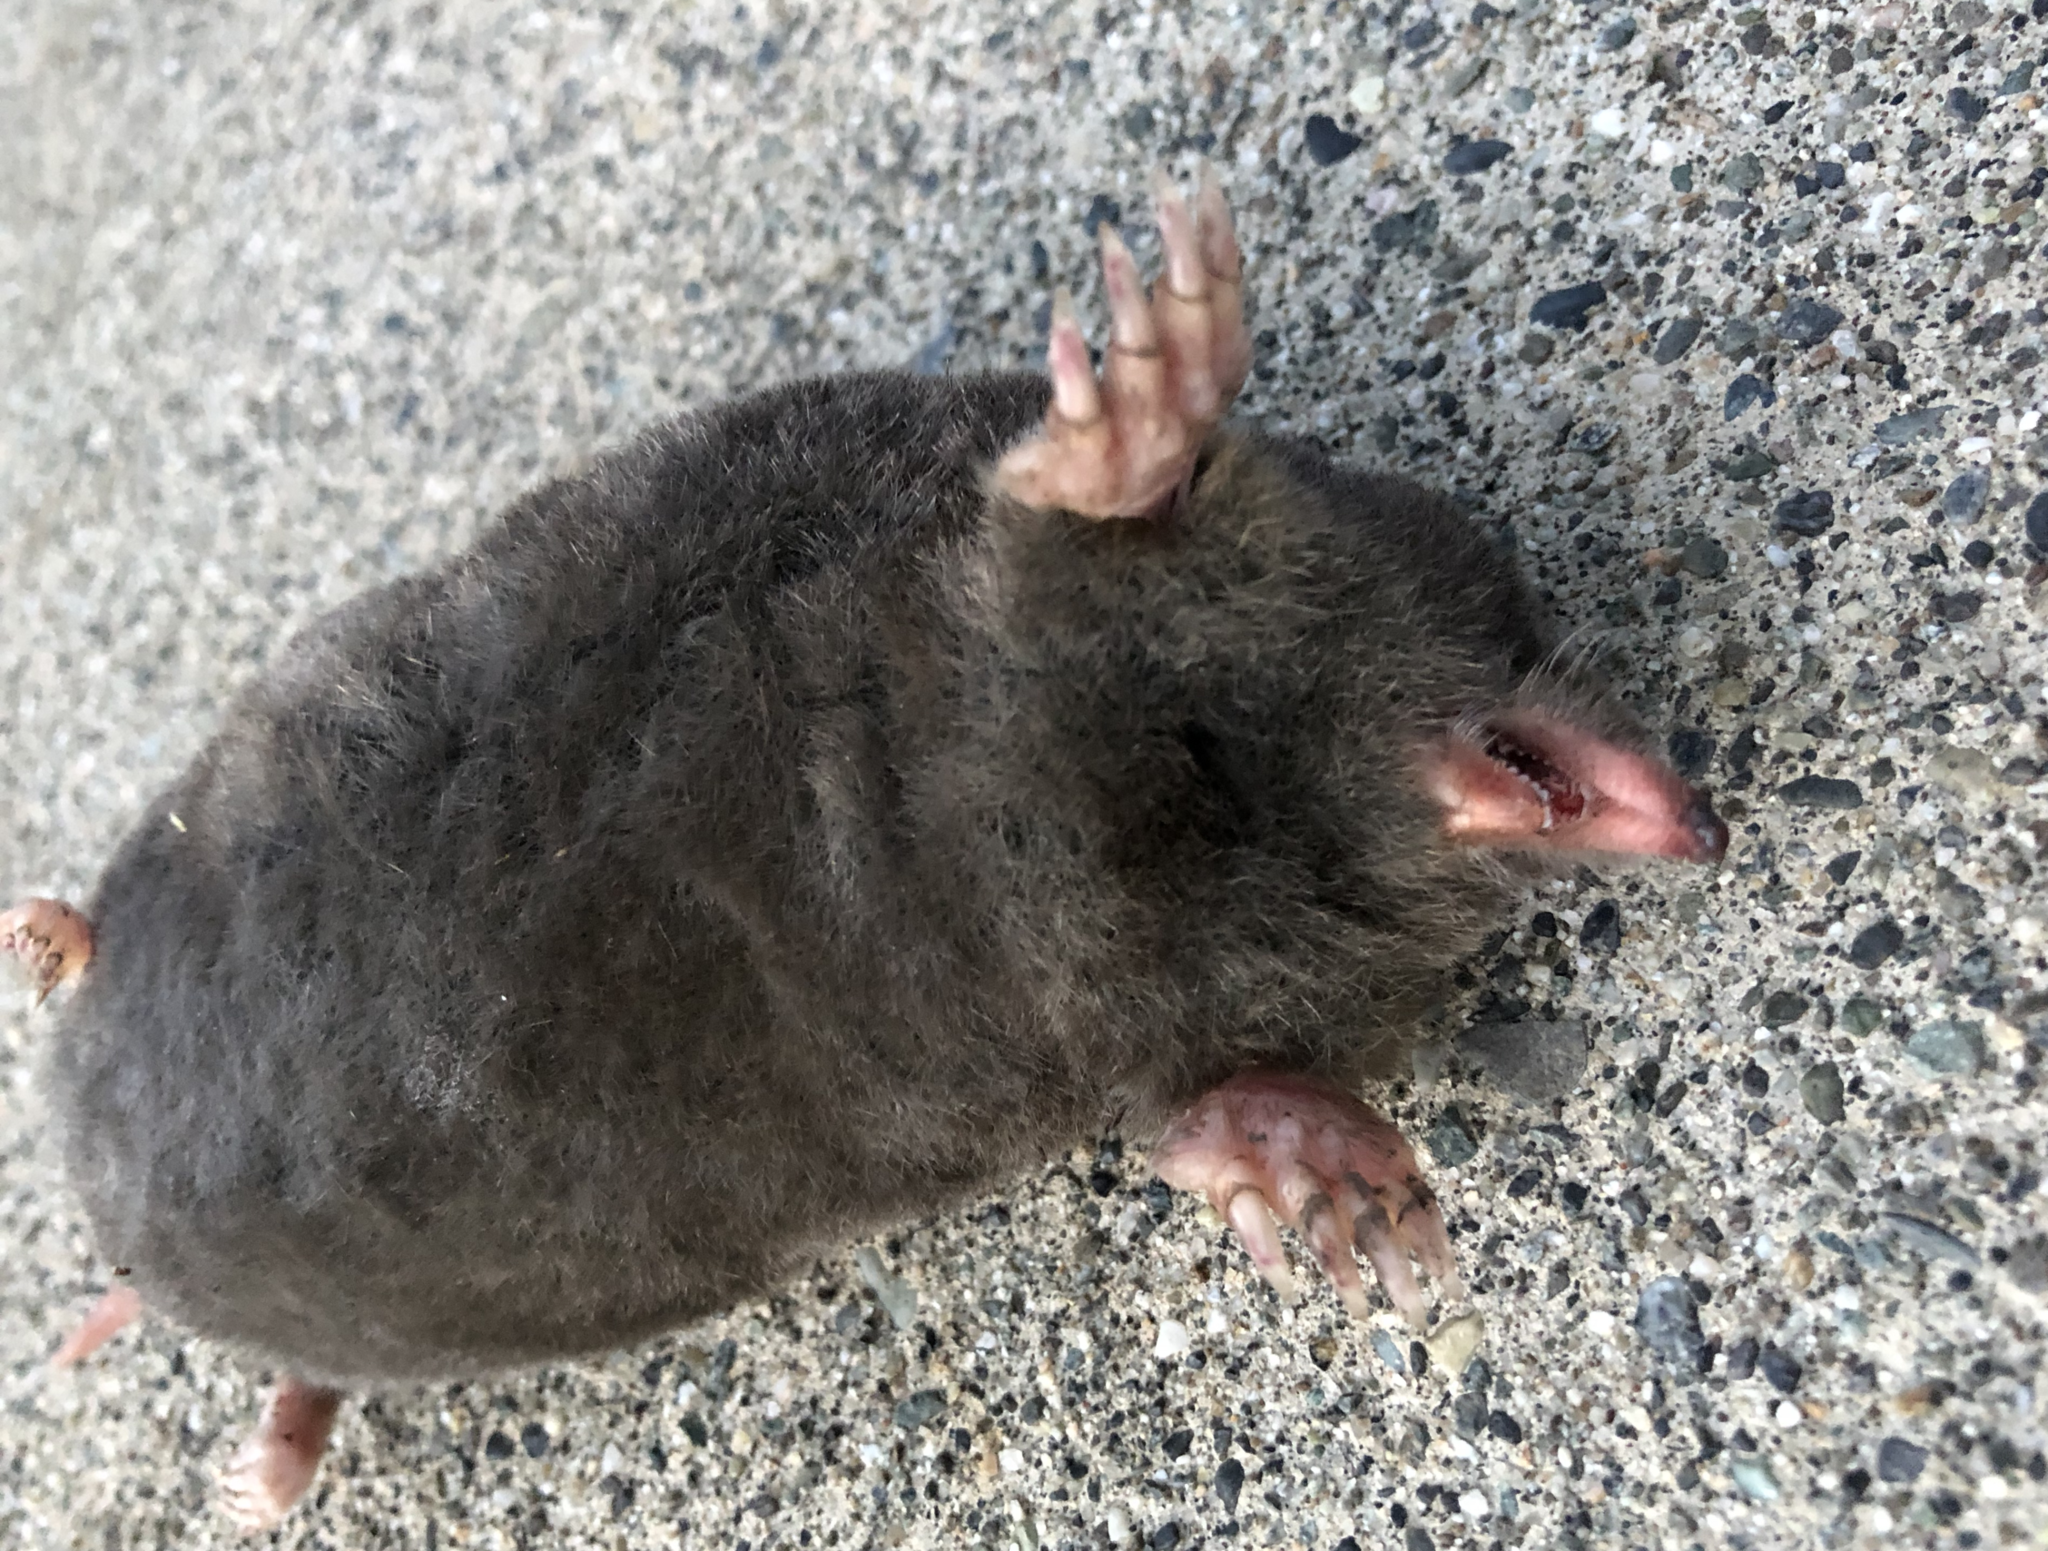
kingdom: Animalia
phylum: Chordata
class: Mammalia
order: Soricomorpha
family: Talpidae
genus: Scapanus
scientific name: Scapanus orarius
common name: Coast mole
